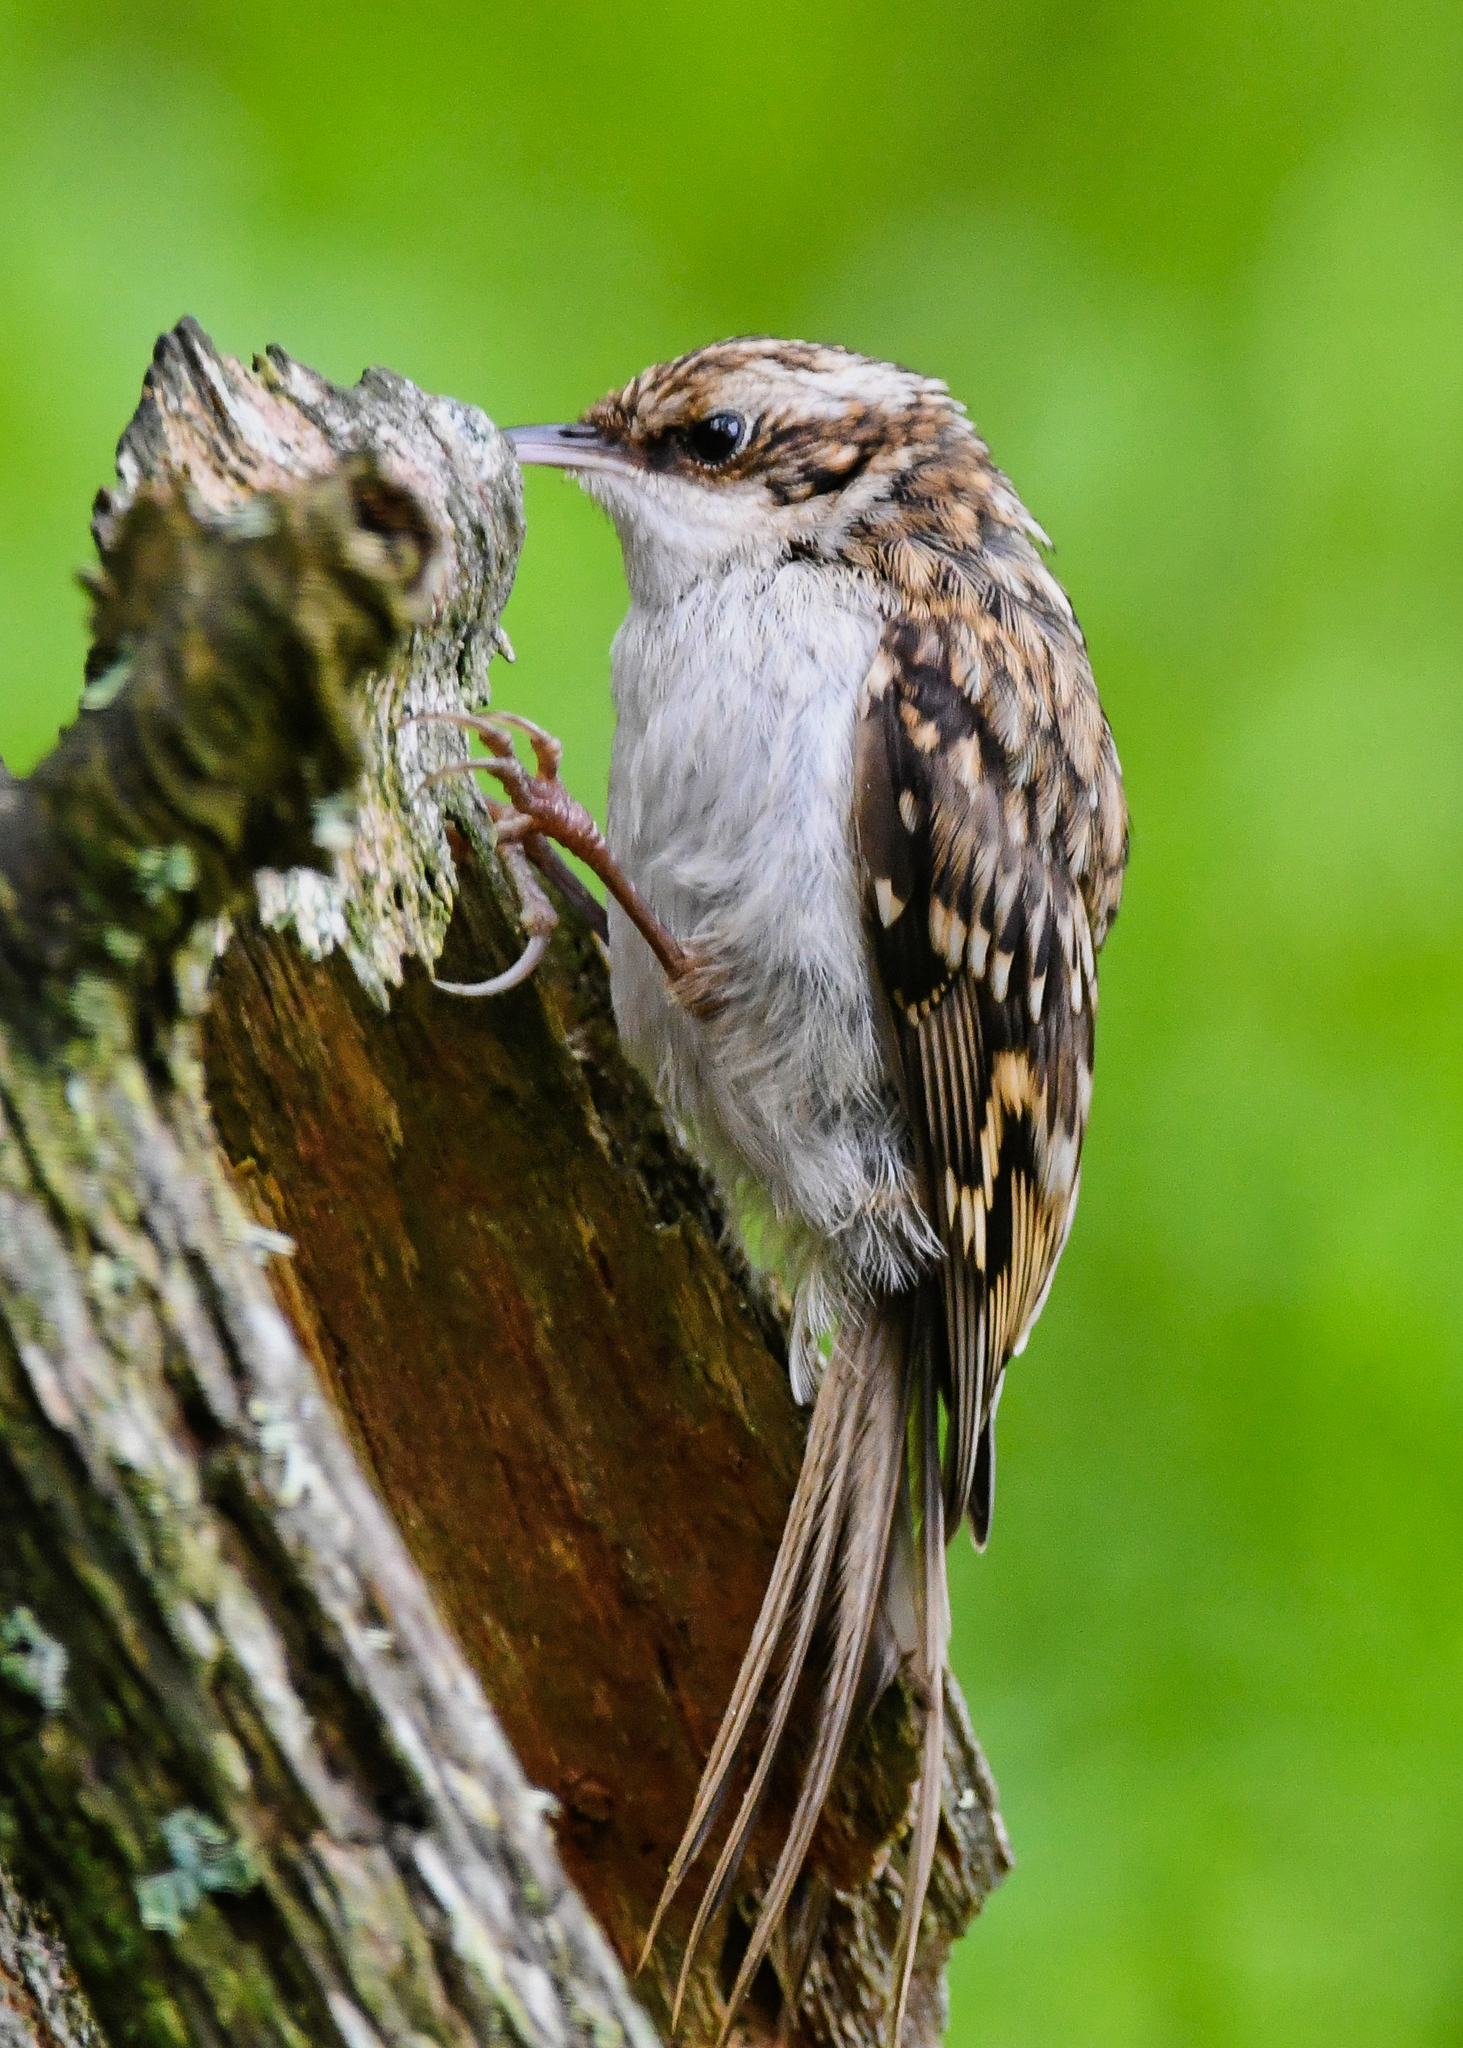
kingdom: Animalia
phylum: Chordata
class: Aves
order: Passeriformes
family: Certhiidae
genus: Certhia
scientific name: Certhia familiaris
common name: Eurasian treecreeper
